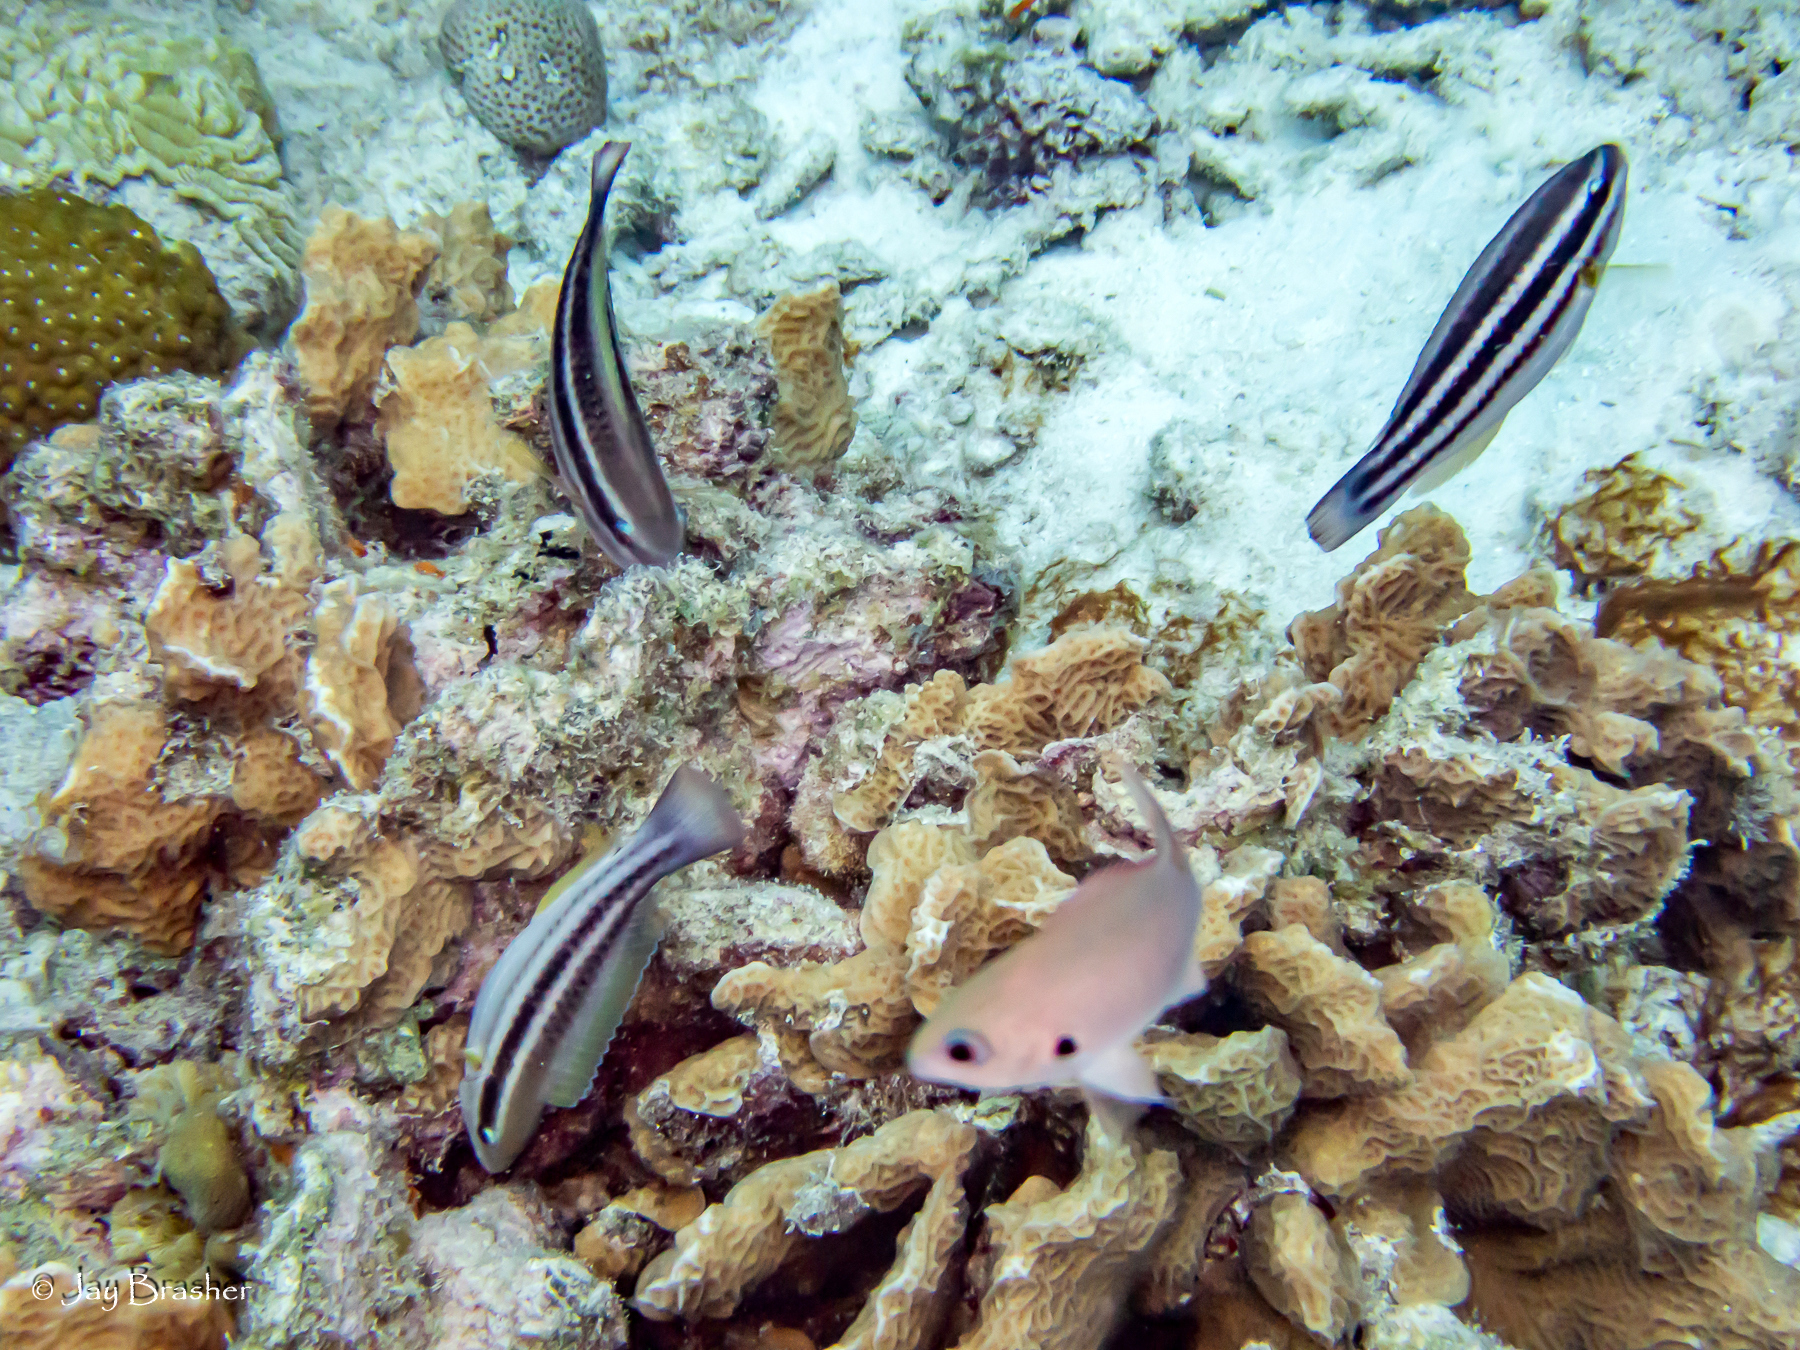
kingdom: Animalia
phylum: Chordata
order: Perciformes
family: Pomacentridae
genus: Chromis
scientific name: Chromis multilineata
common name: Brown chromis
